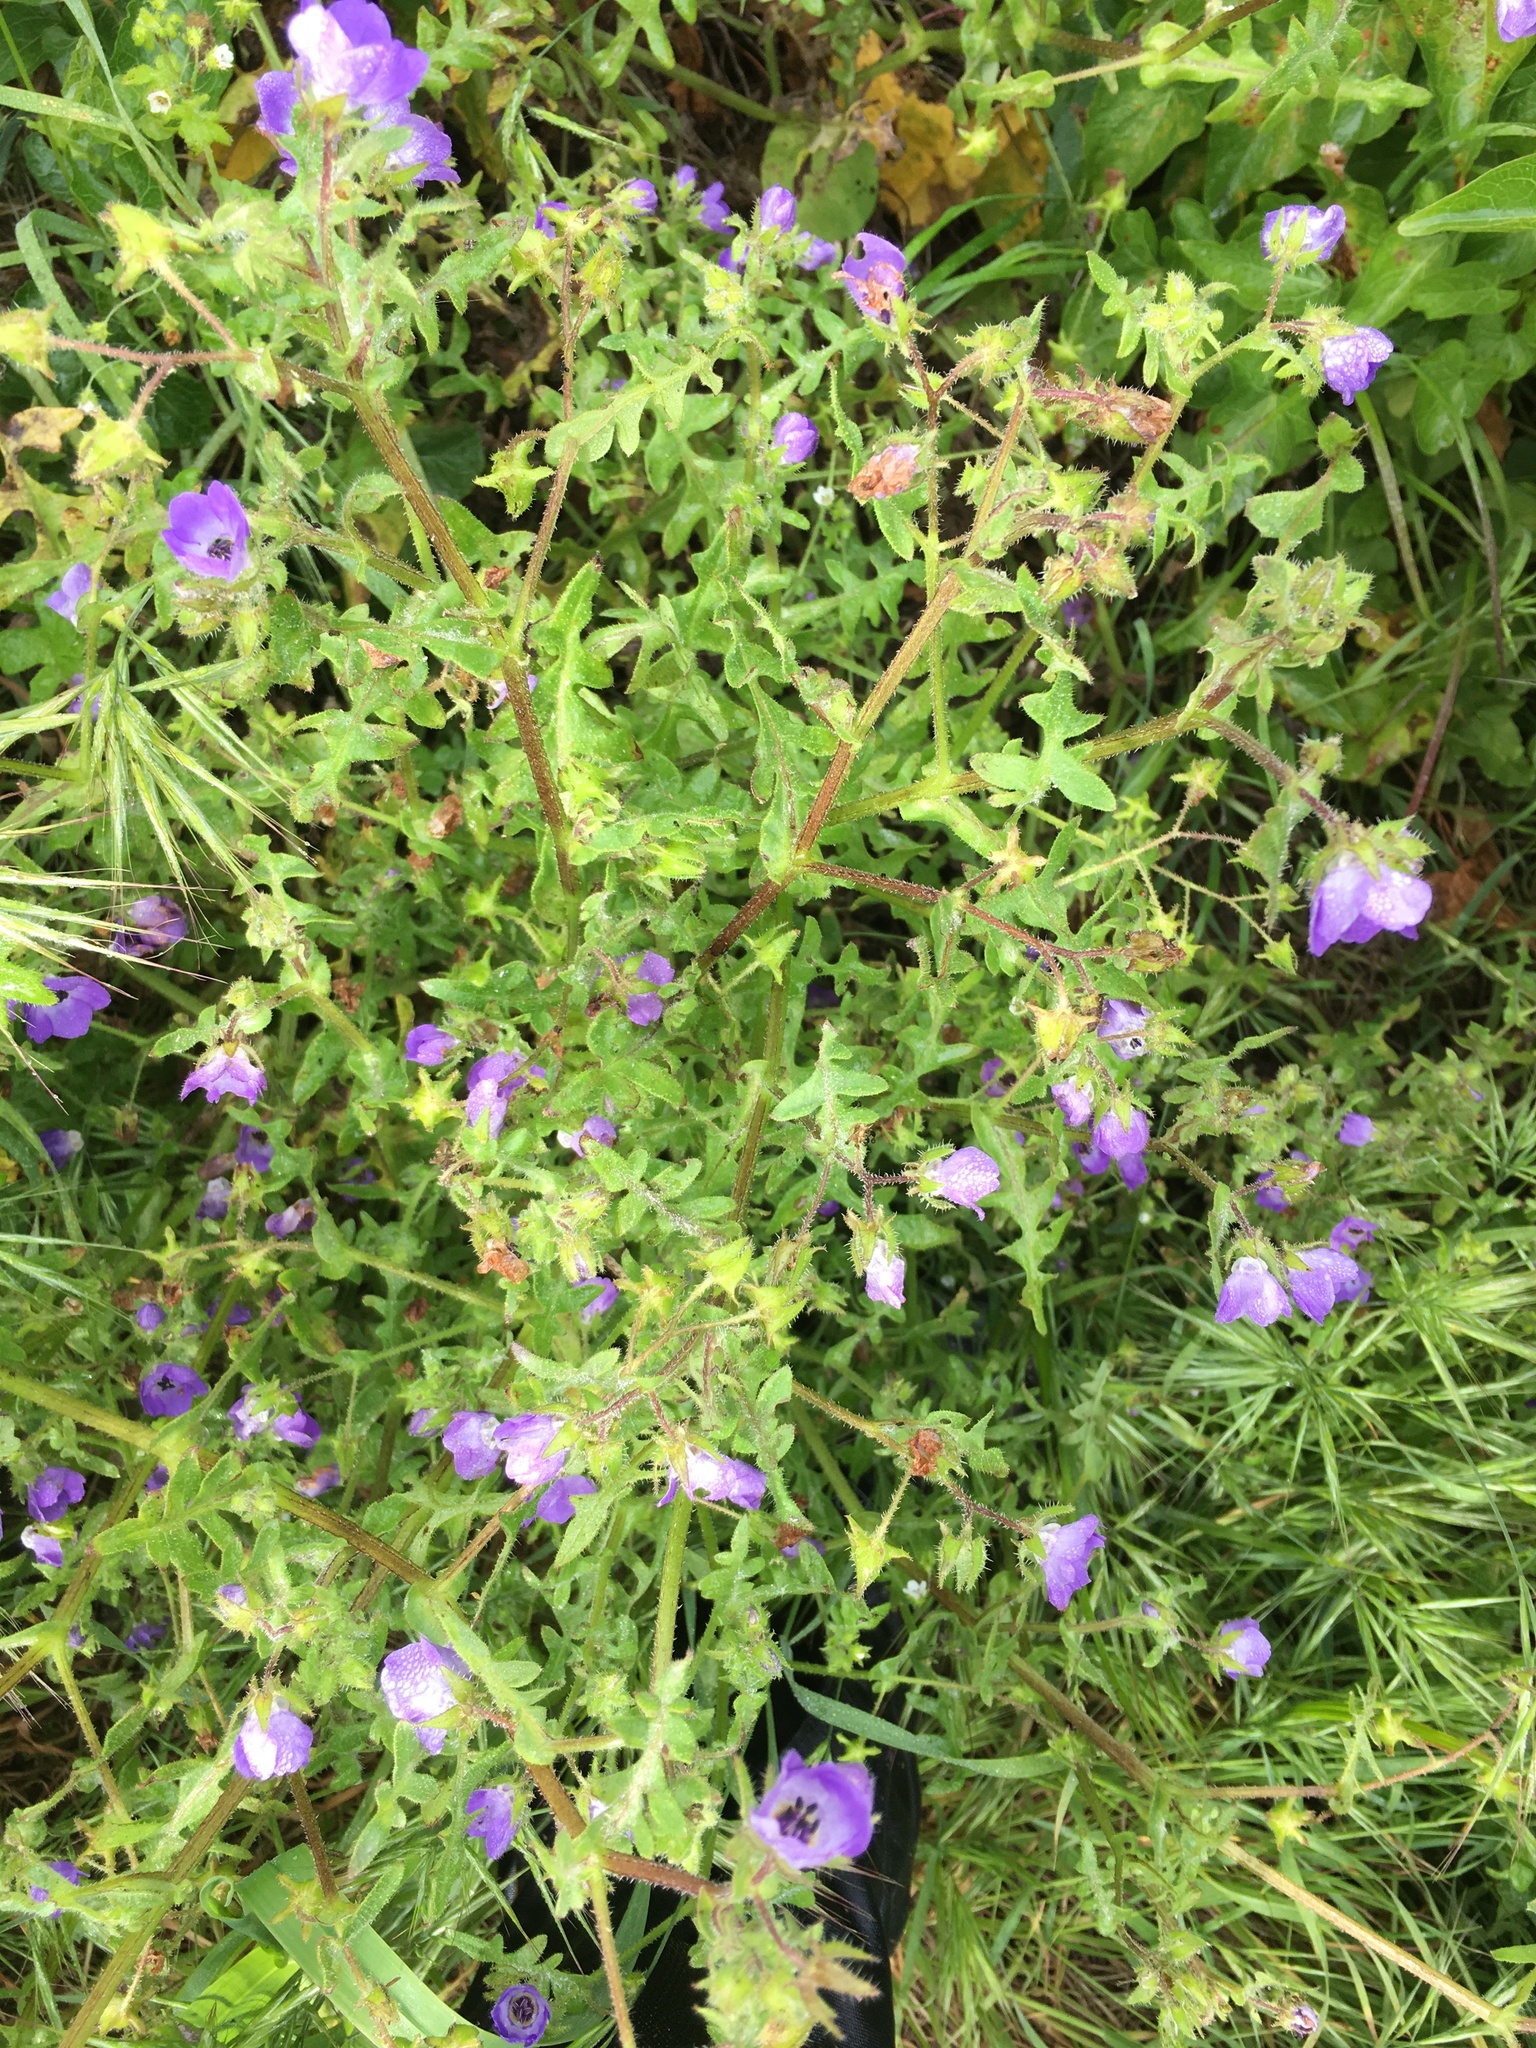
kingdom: Plantae
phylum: Tracheophyta
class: Magnoliopsida
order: Boraginales
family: Hydrophyllaceae
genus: Pholistoma
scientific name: Pholistoma auritum
